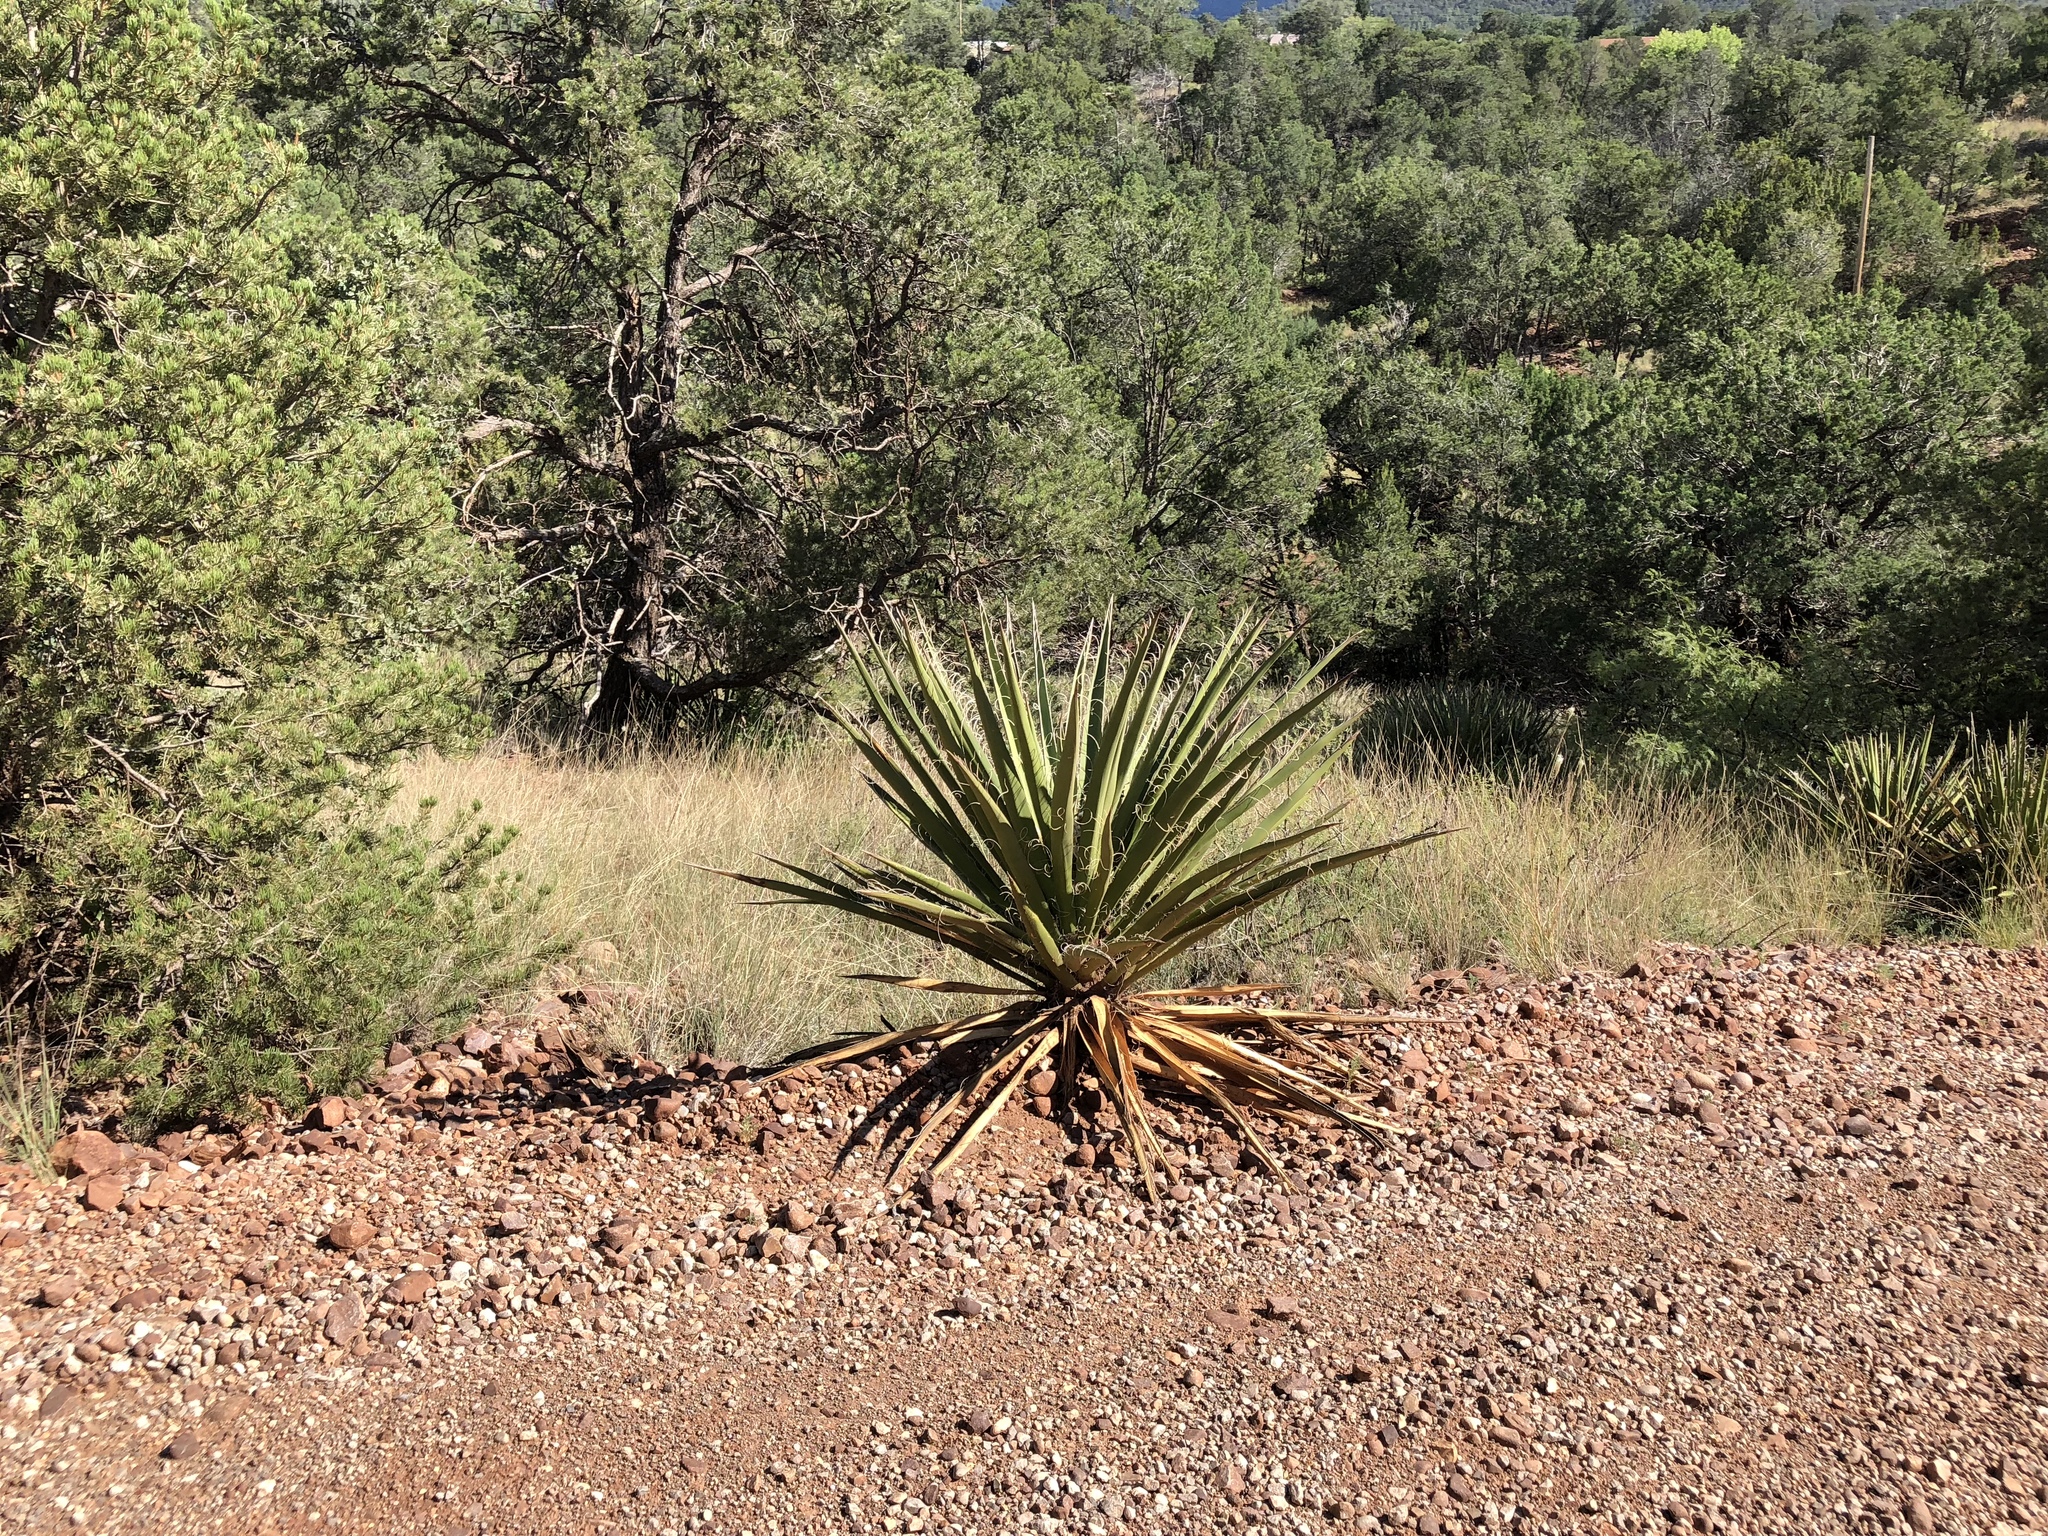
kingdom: Plantae
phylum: Tracheophyta
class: Liliopsida
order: Asparagales
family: Asparagaceae
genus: Yucca
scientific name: Yucca baccata
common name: Banana yucca
